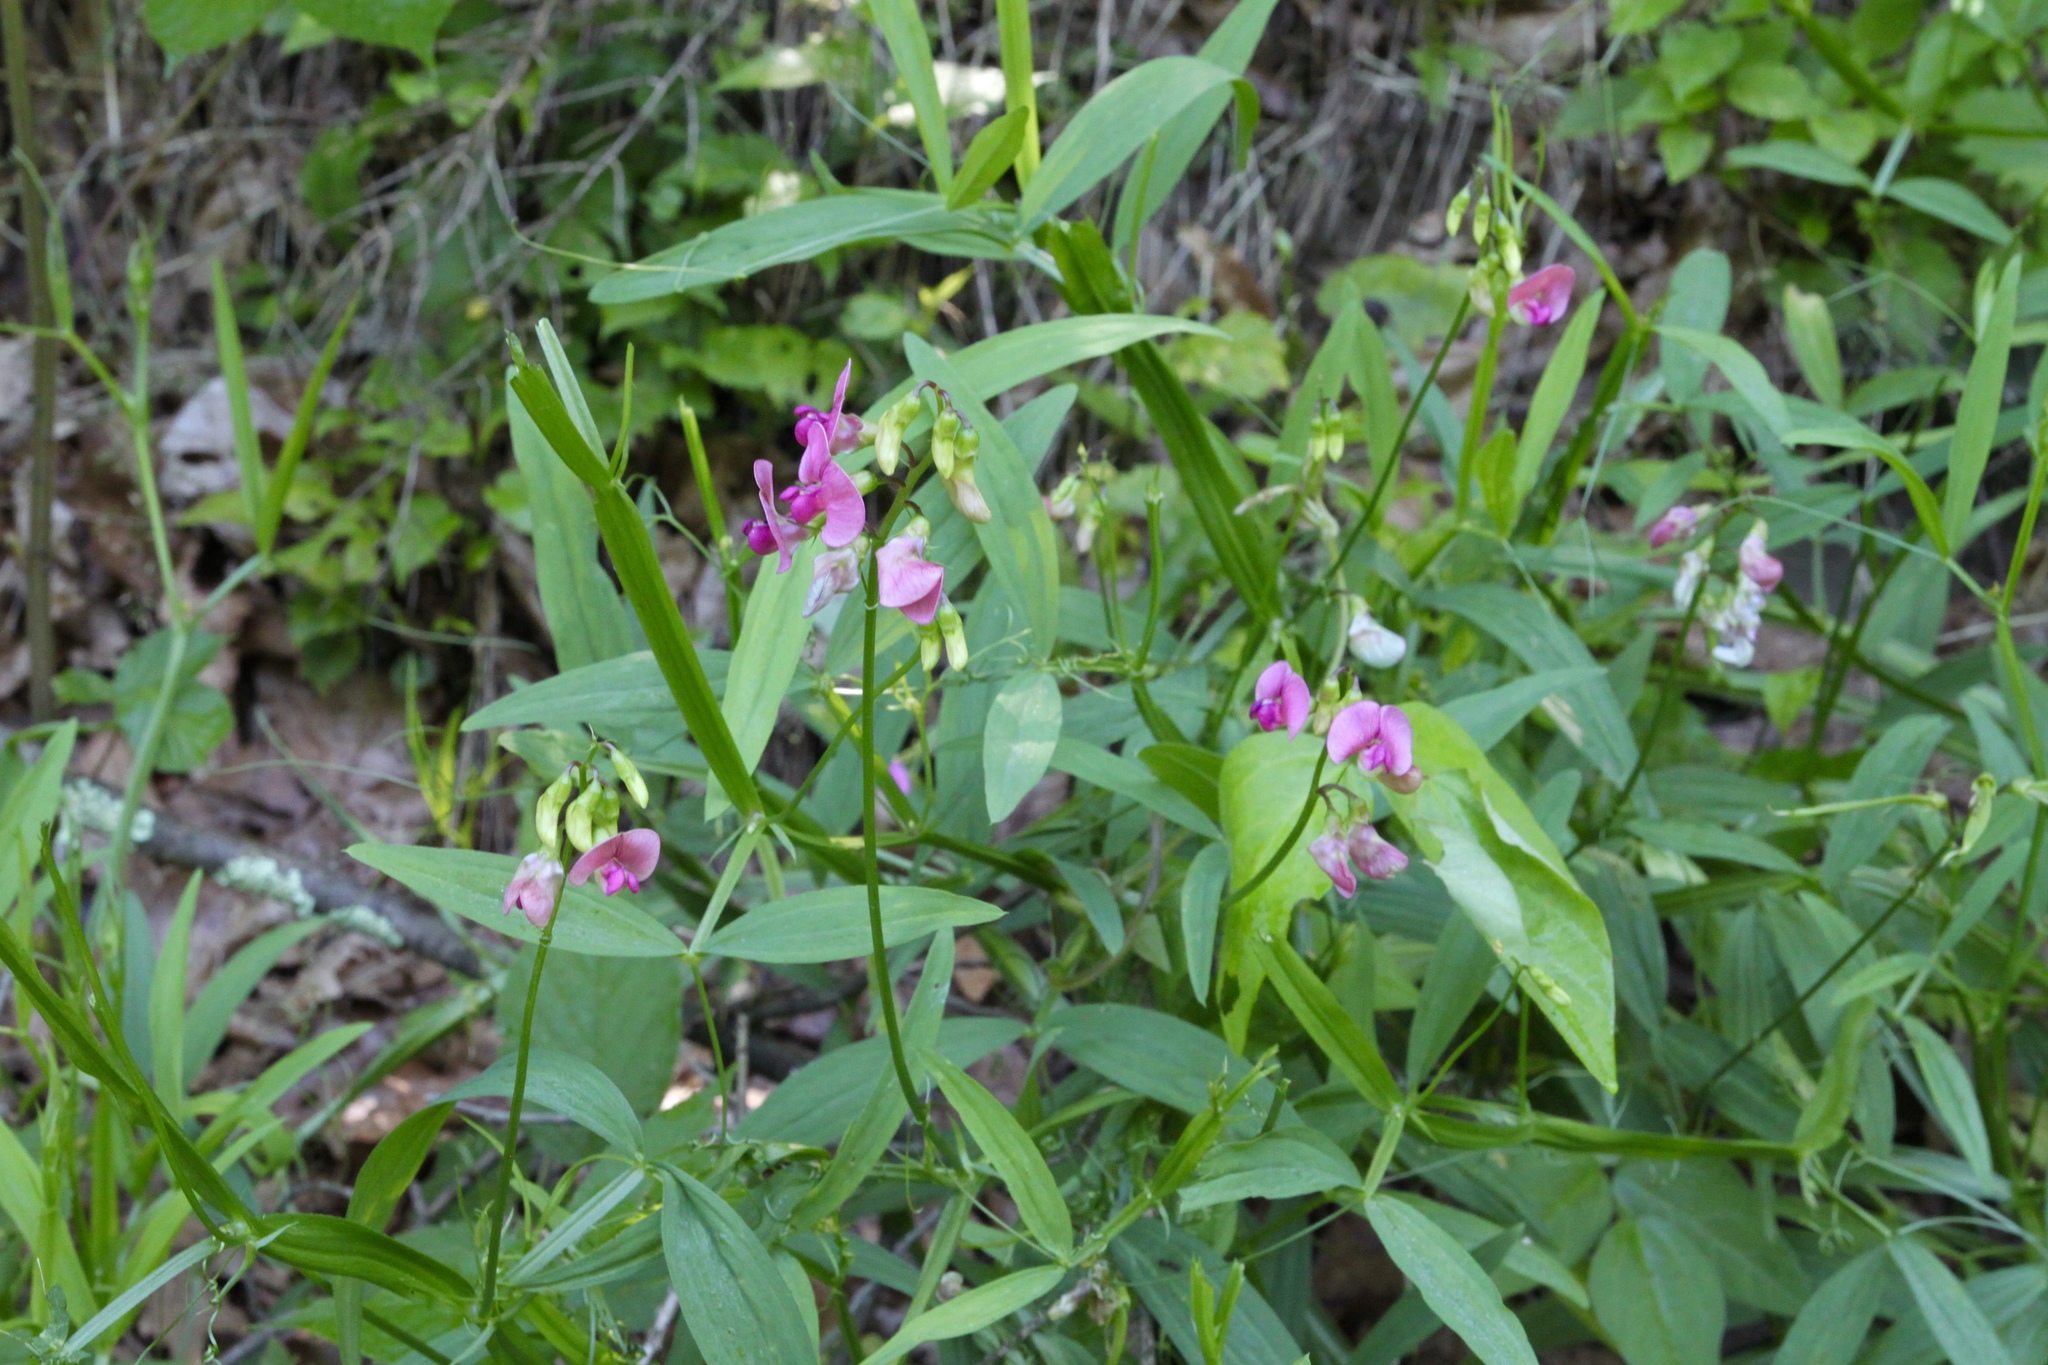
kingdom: Plantae
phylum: Tracheophyta
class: Magnoliopsida
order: Fabales
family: Fabaceae
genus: Lathyrus
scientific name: Lathyrus sylvestris
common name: Flat pea
